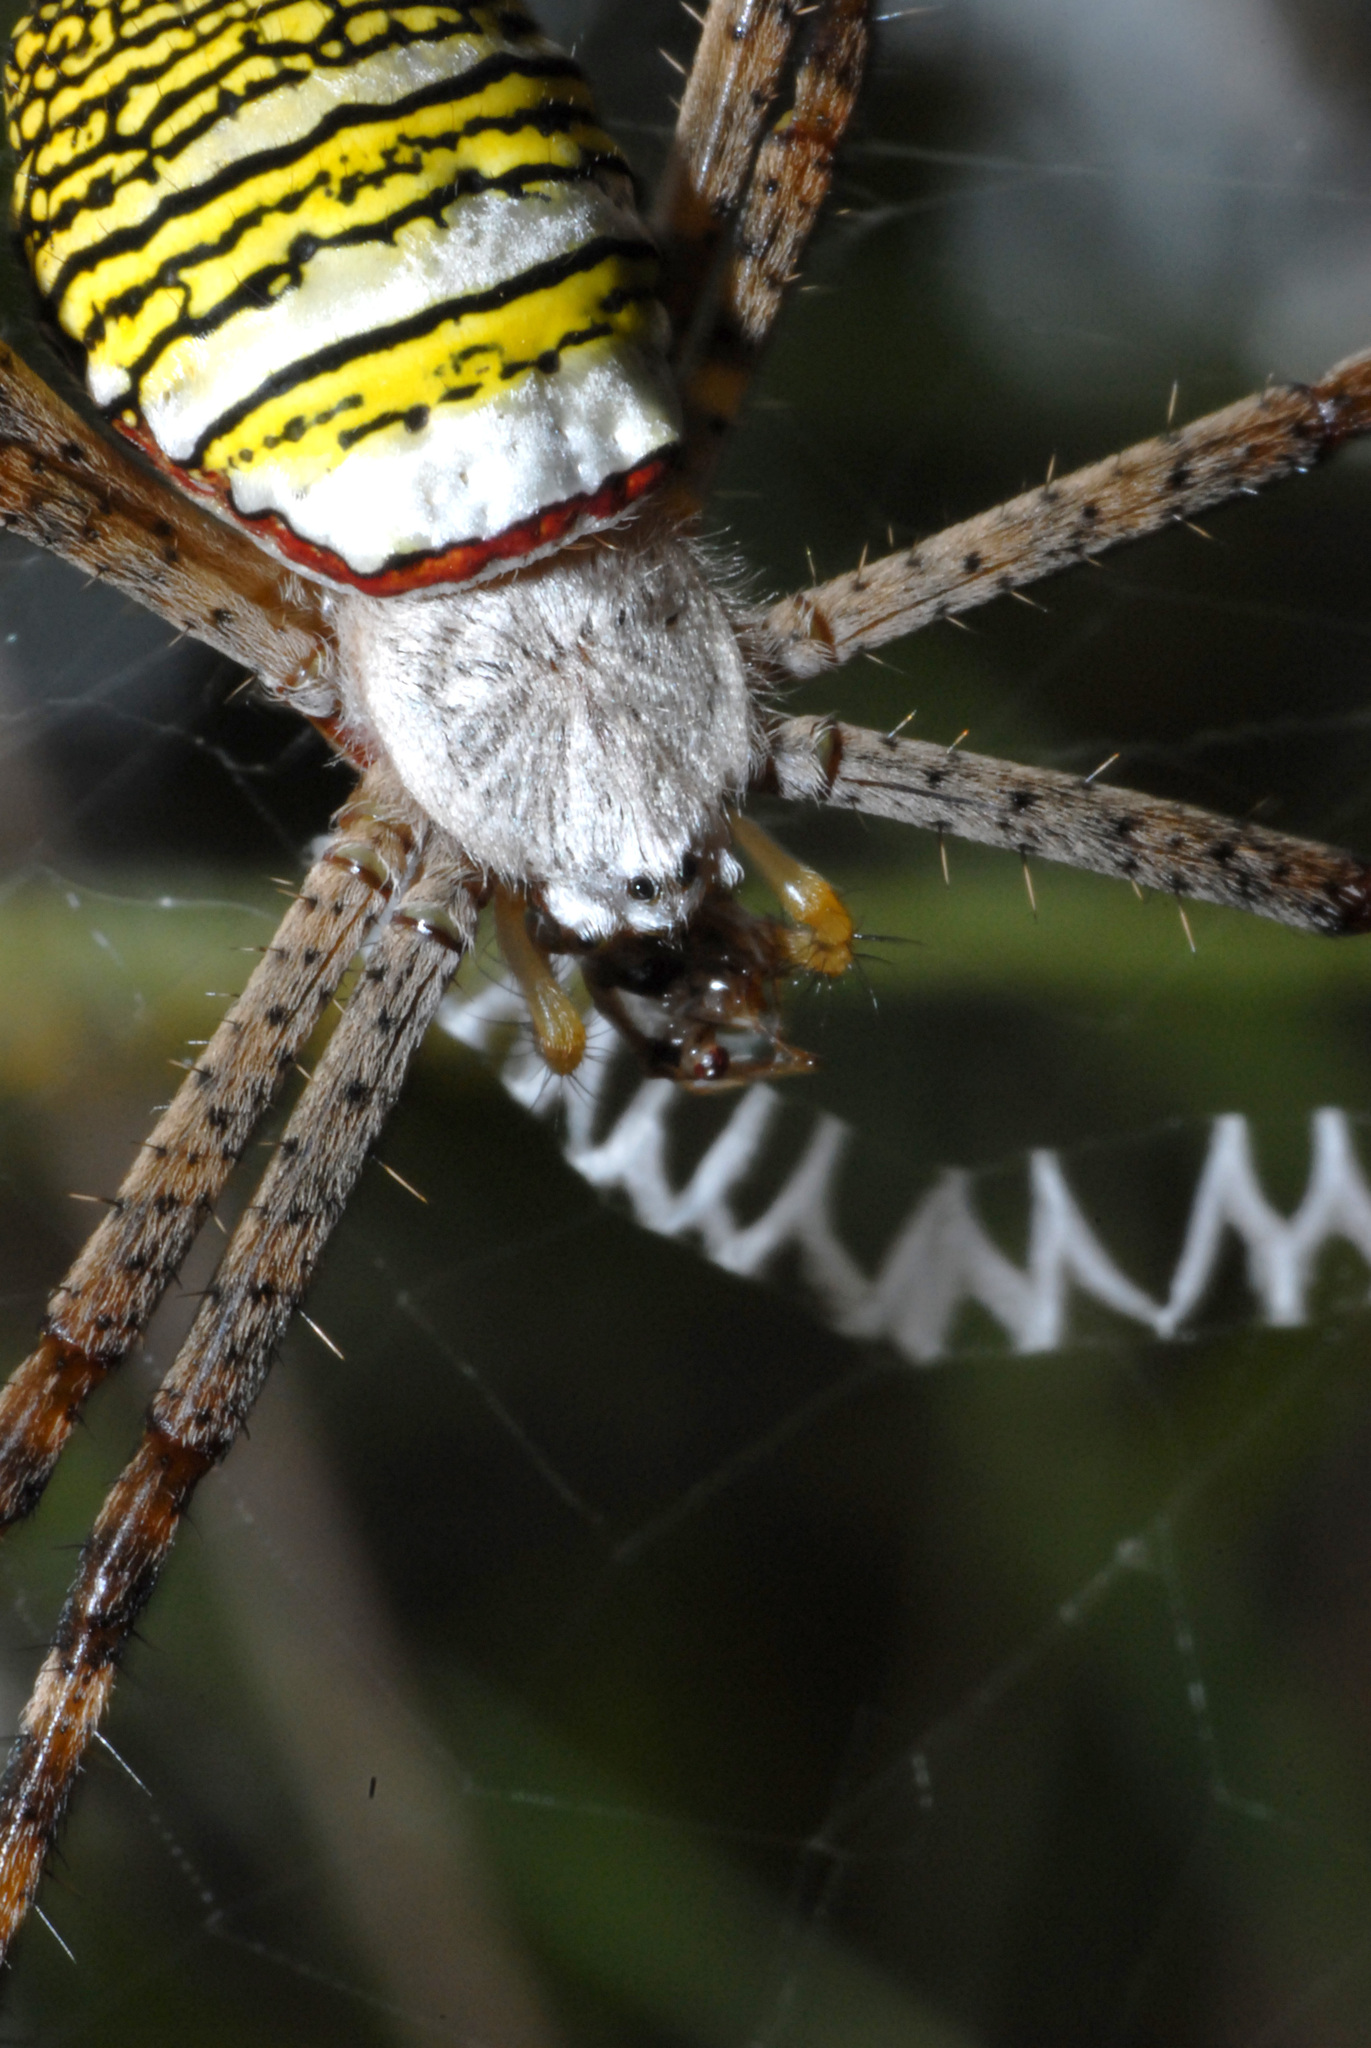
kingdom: Animalia
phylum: Arthropoda
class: Arachnida
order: Araneae
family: Araneidae
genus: Argiope
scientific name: Argiope aemula
